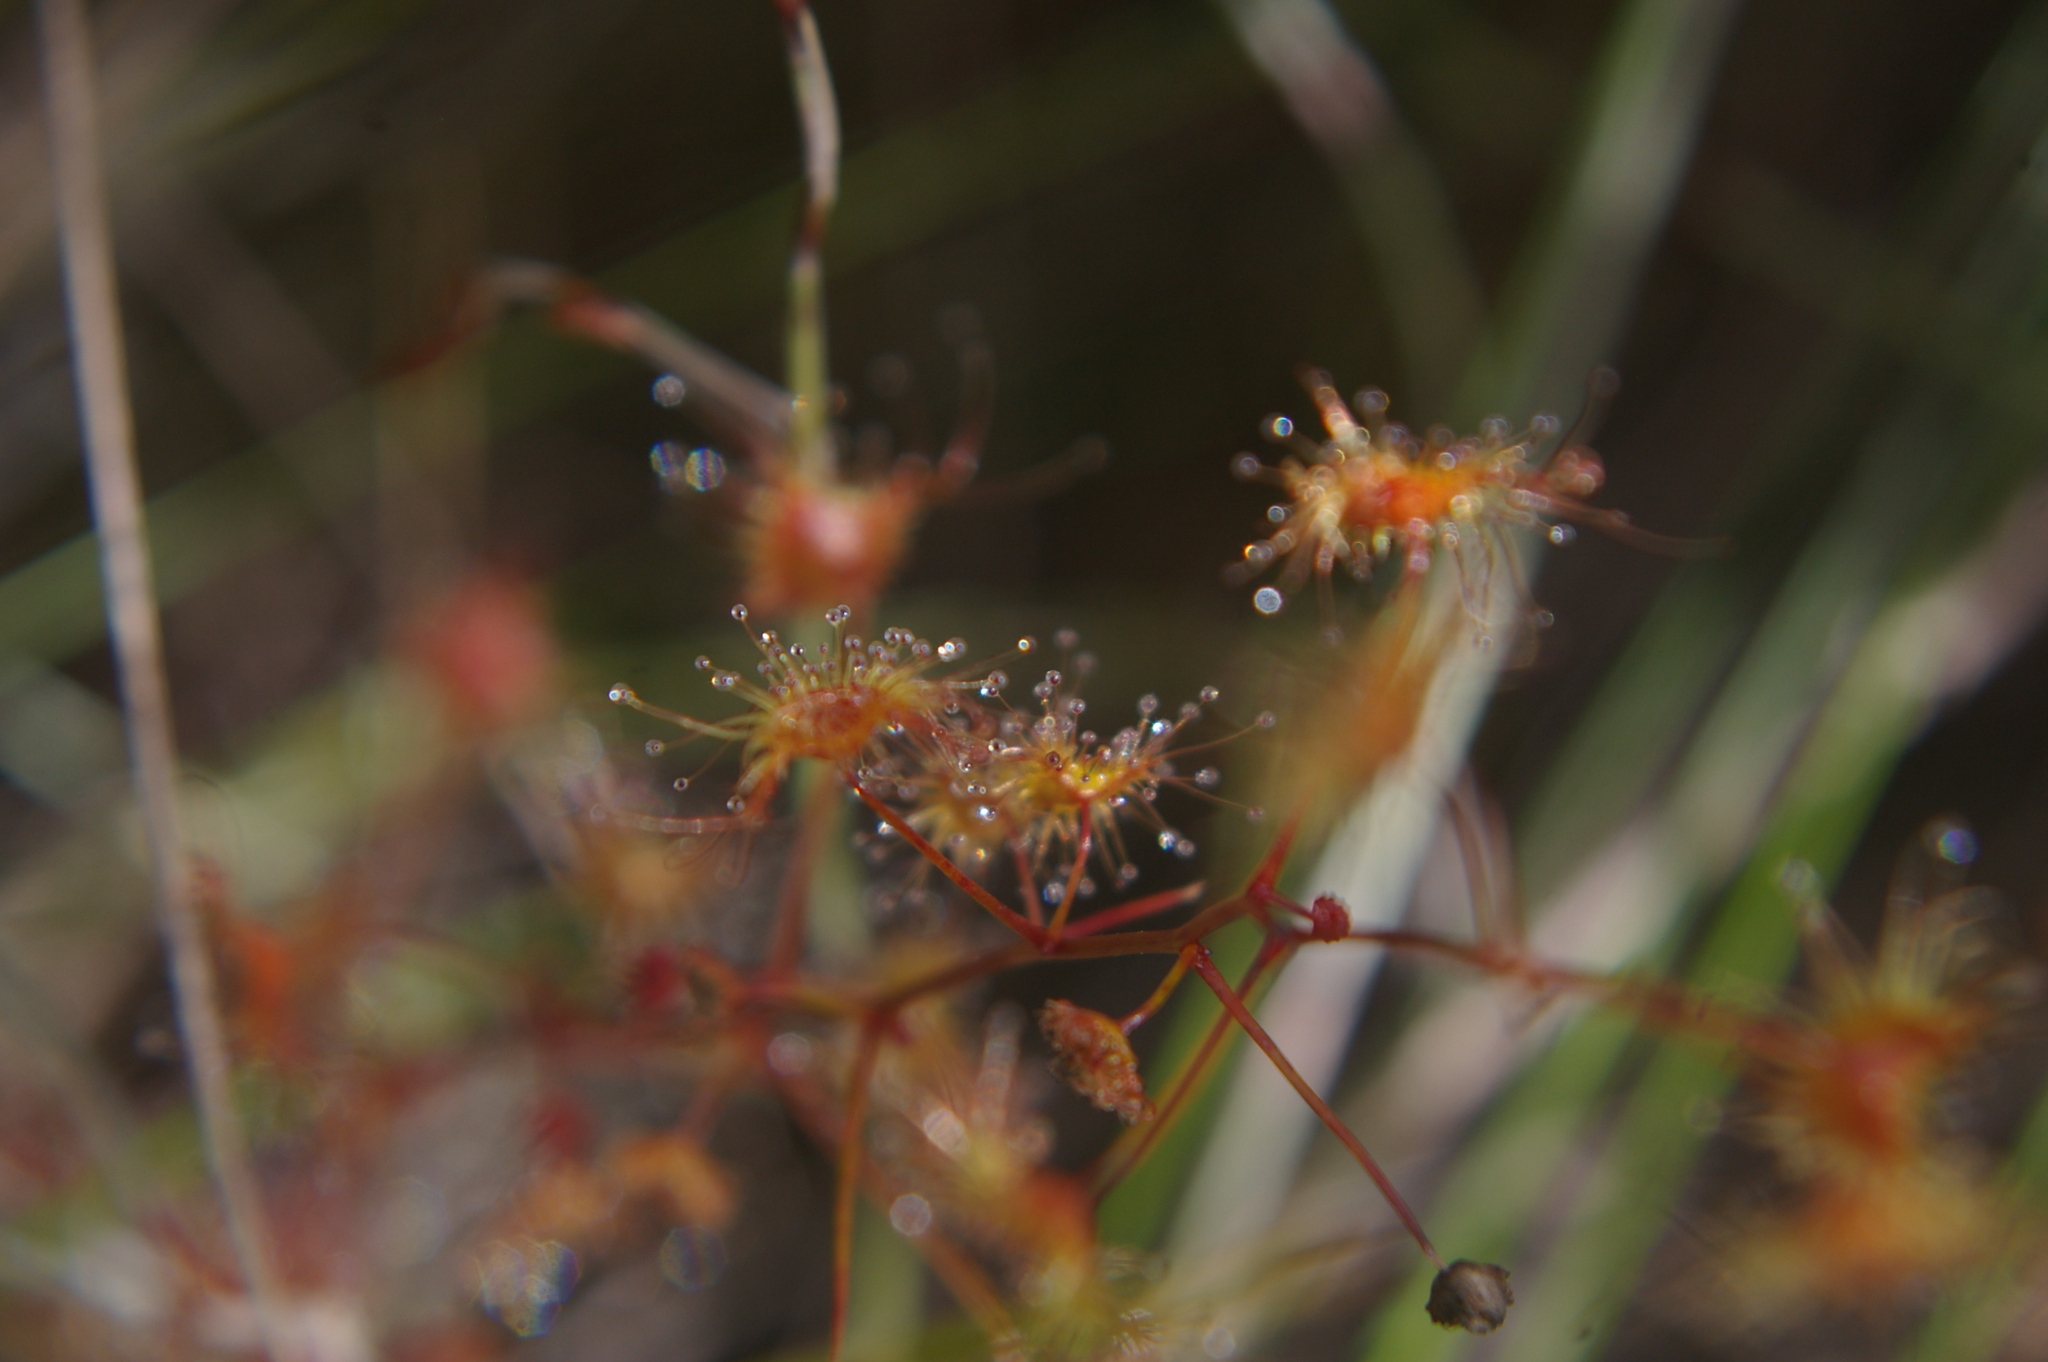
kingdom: Plantae
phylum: Tracheophyta
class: Magnoliopsida
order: Caryophyllales
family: Droseraceae
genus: Drosera
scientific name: Drosera peltata
